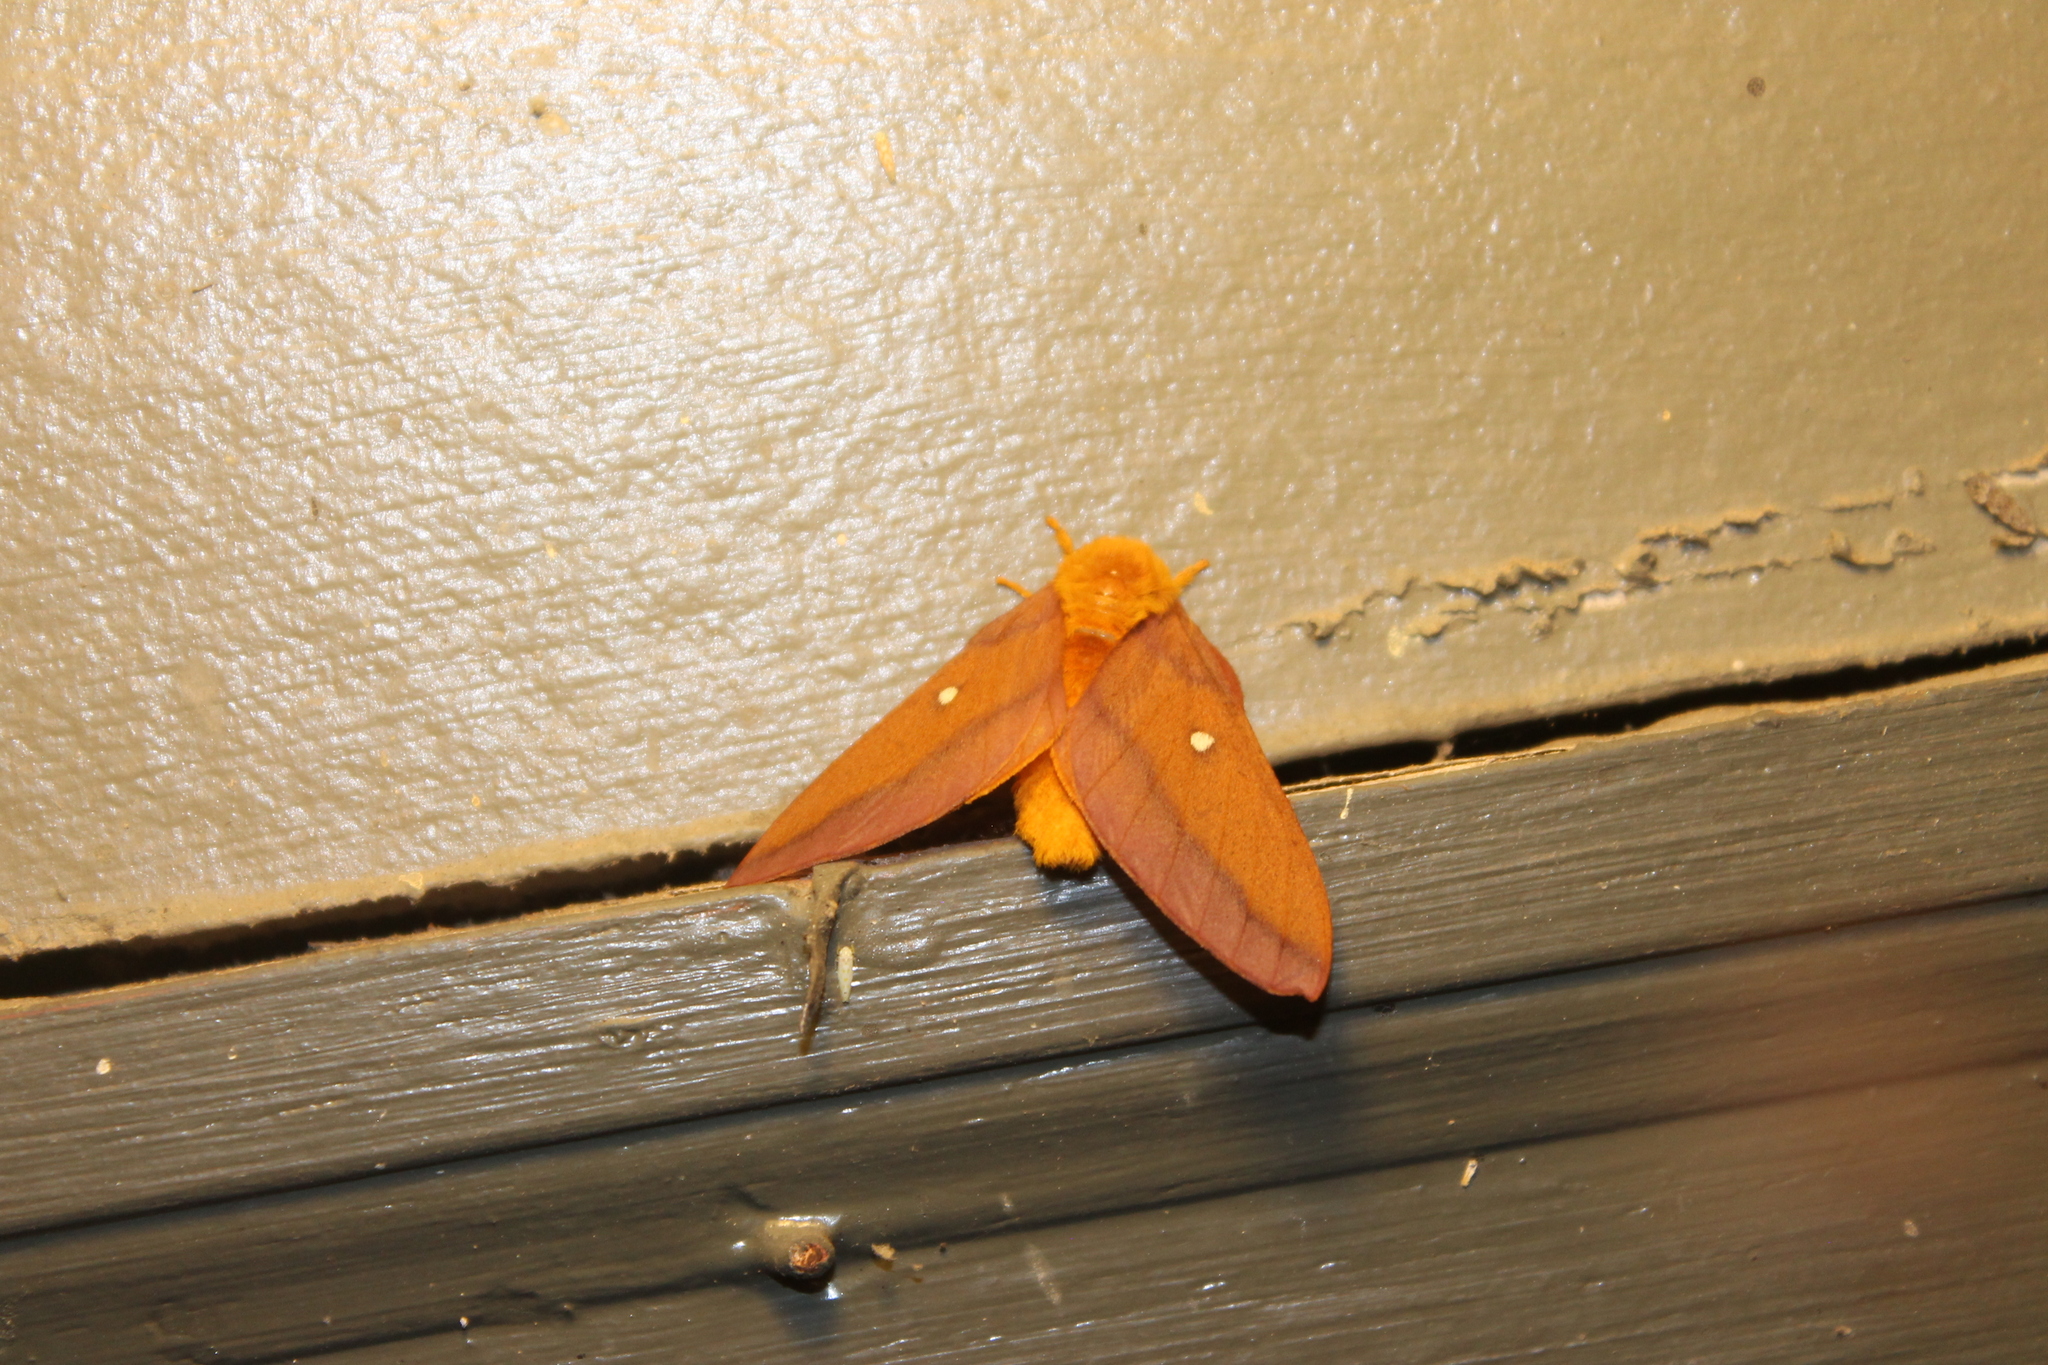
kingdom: Animalia
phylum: Arthropoda
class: Insecta
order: Lepidoptera
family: Saturniidae
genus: Anisota
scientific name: Anisota virginiensis
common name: Pink striped oakworm moth
